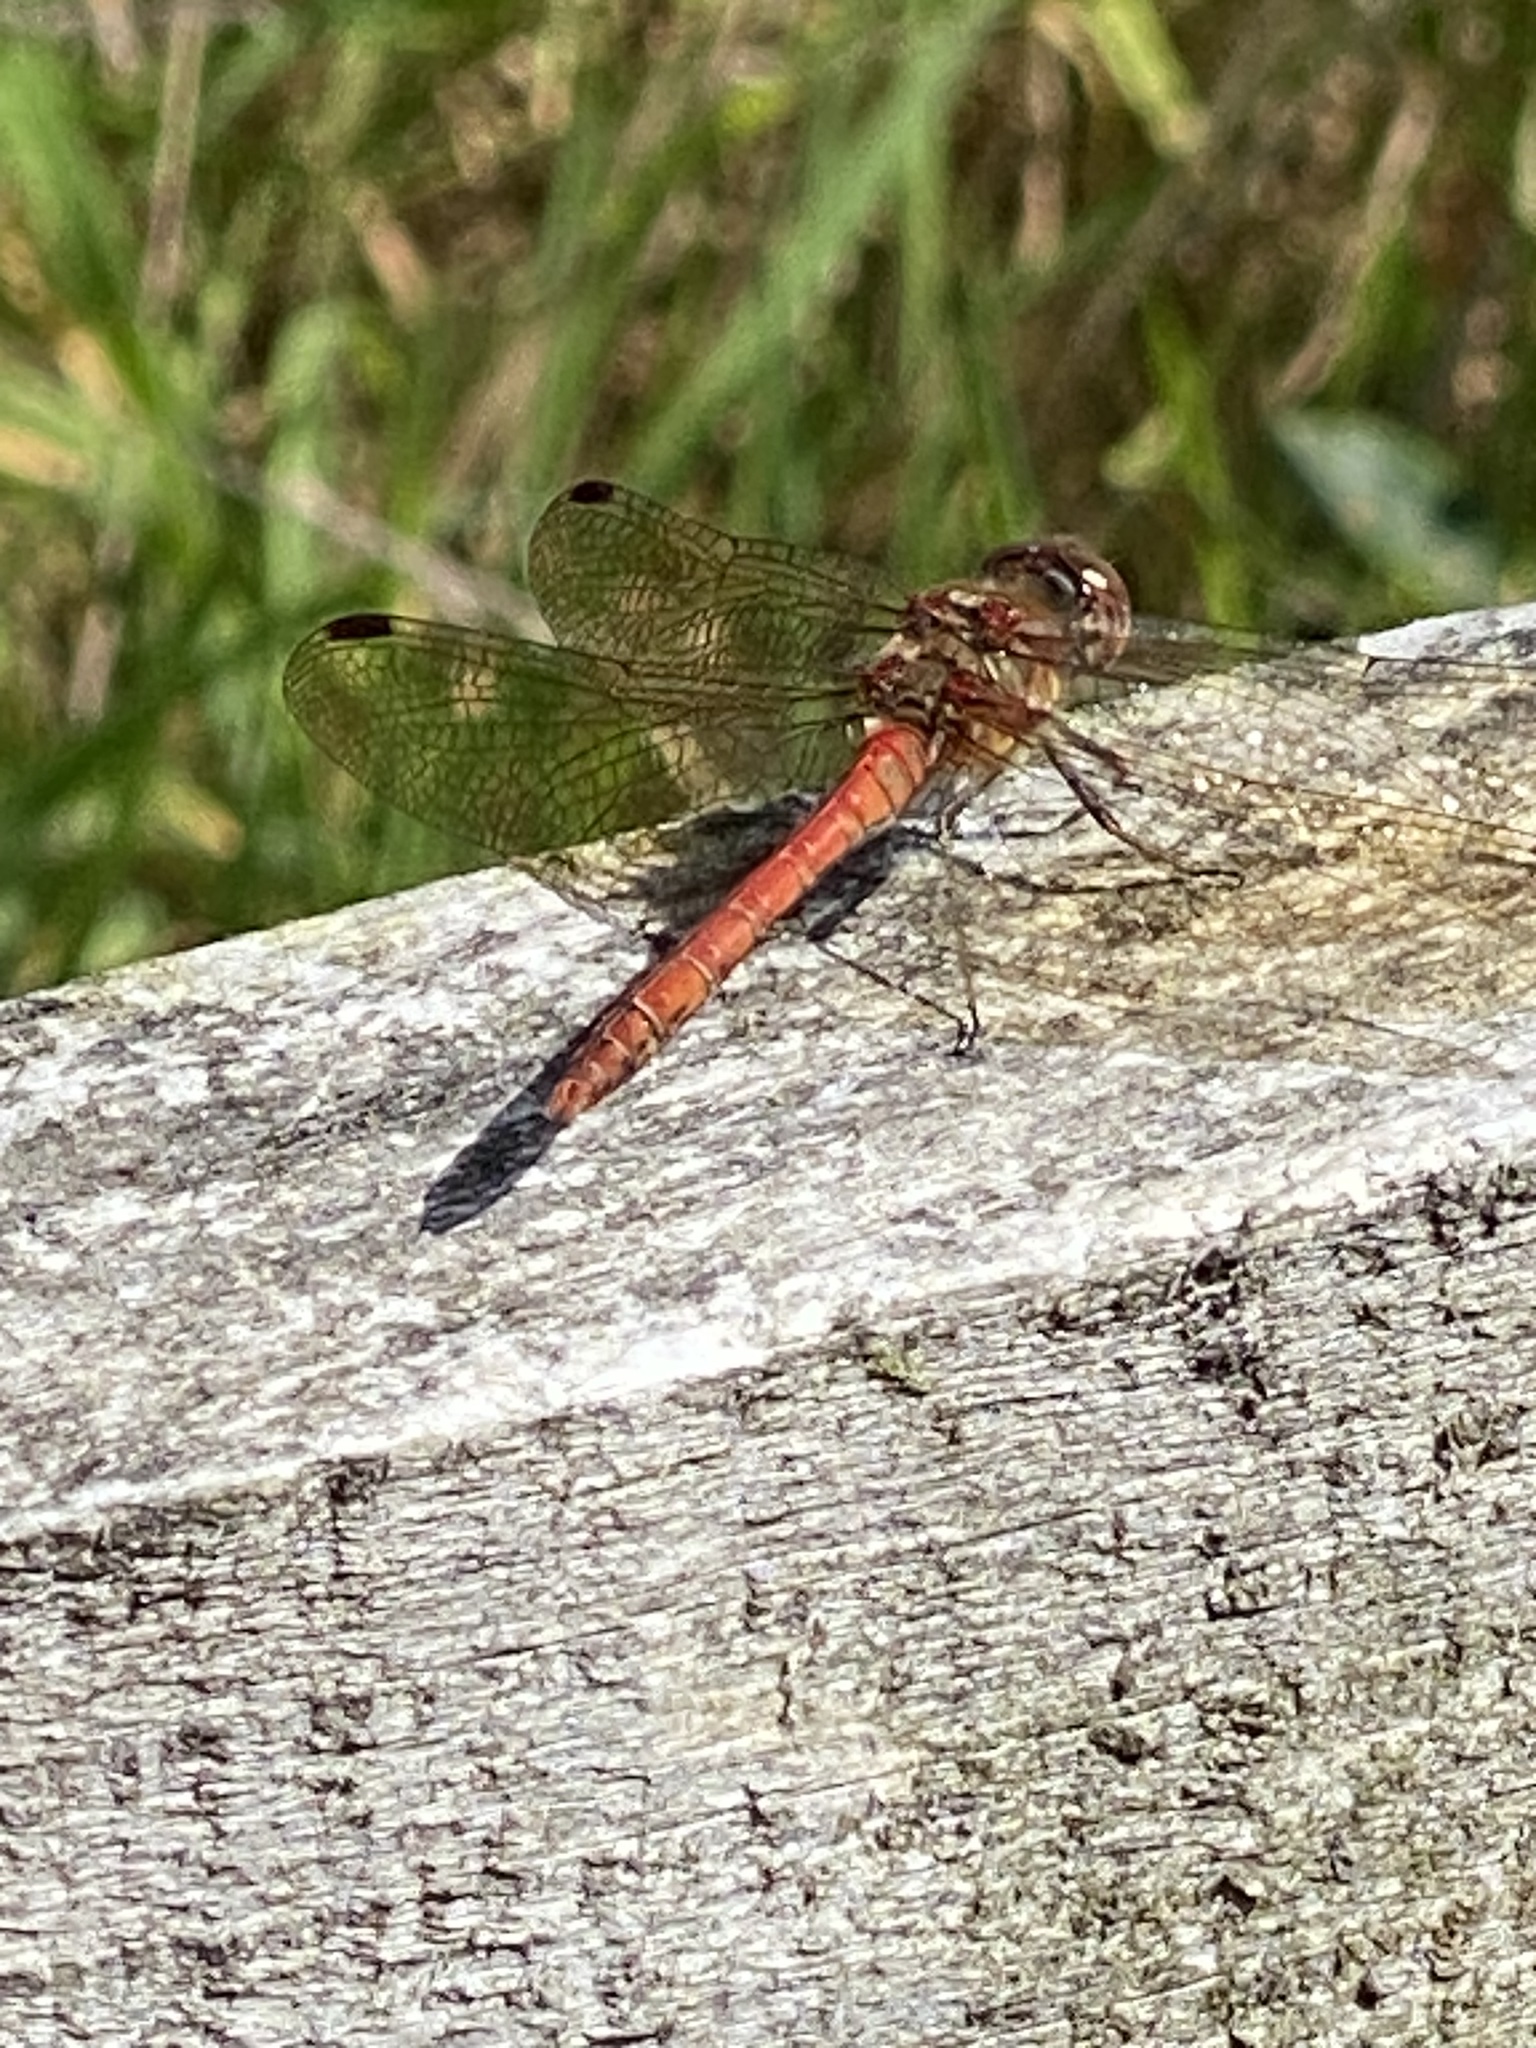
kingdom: Animalia
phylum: Arthropoda
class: Insecta
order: Odonata
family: Libellulidae
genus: Sympetrum
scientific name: Sympetrum striolatum
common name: Common darter
